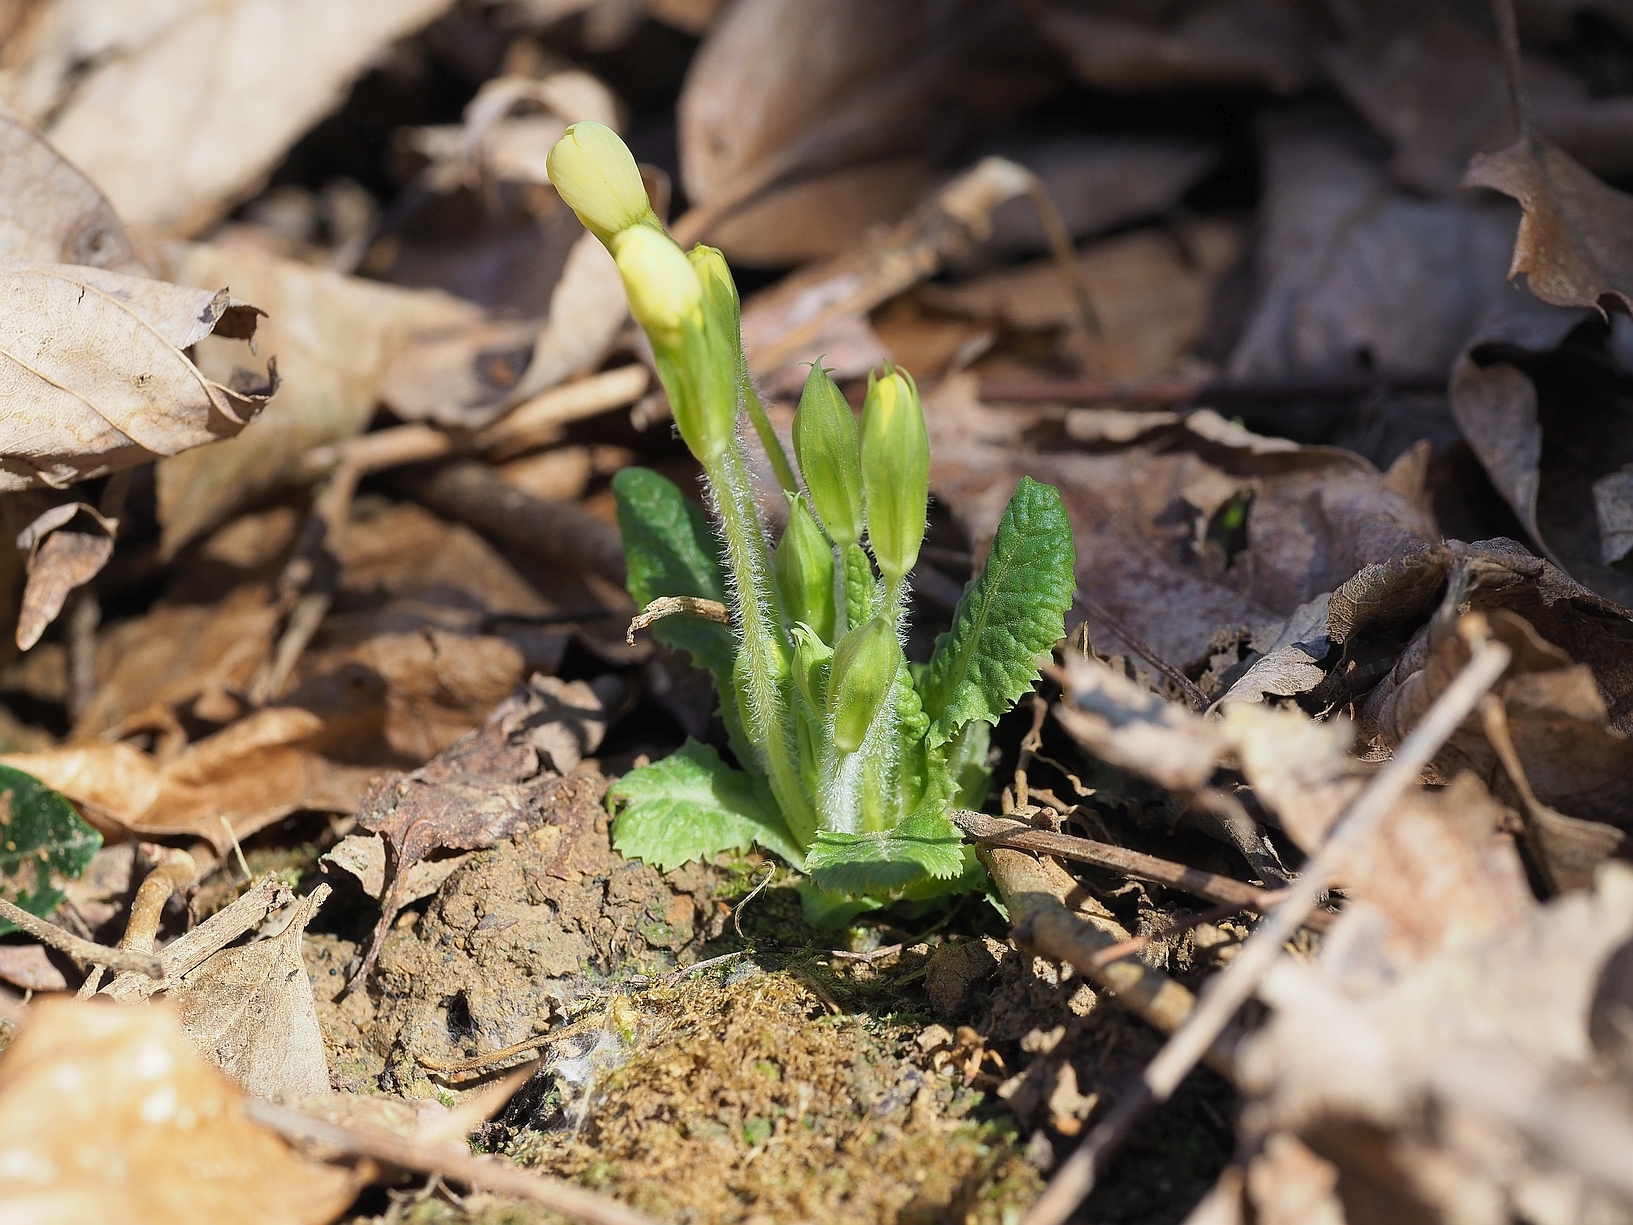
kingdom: Plantae
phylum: Tracheophyta
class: Magnoliopsida
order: Ericales
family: Primulaceae
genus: Primula
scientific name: Primula vulgaris
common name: Primrose
